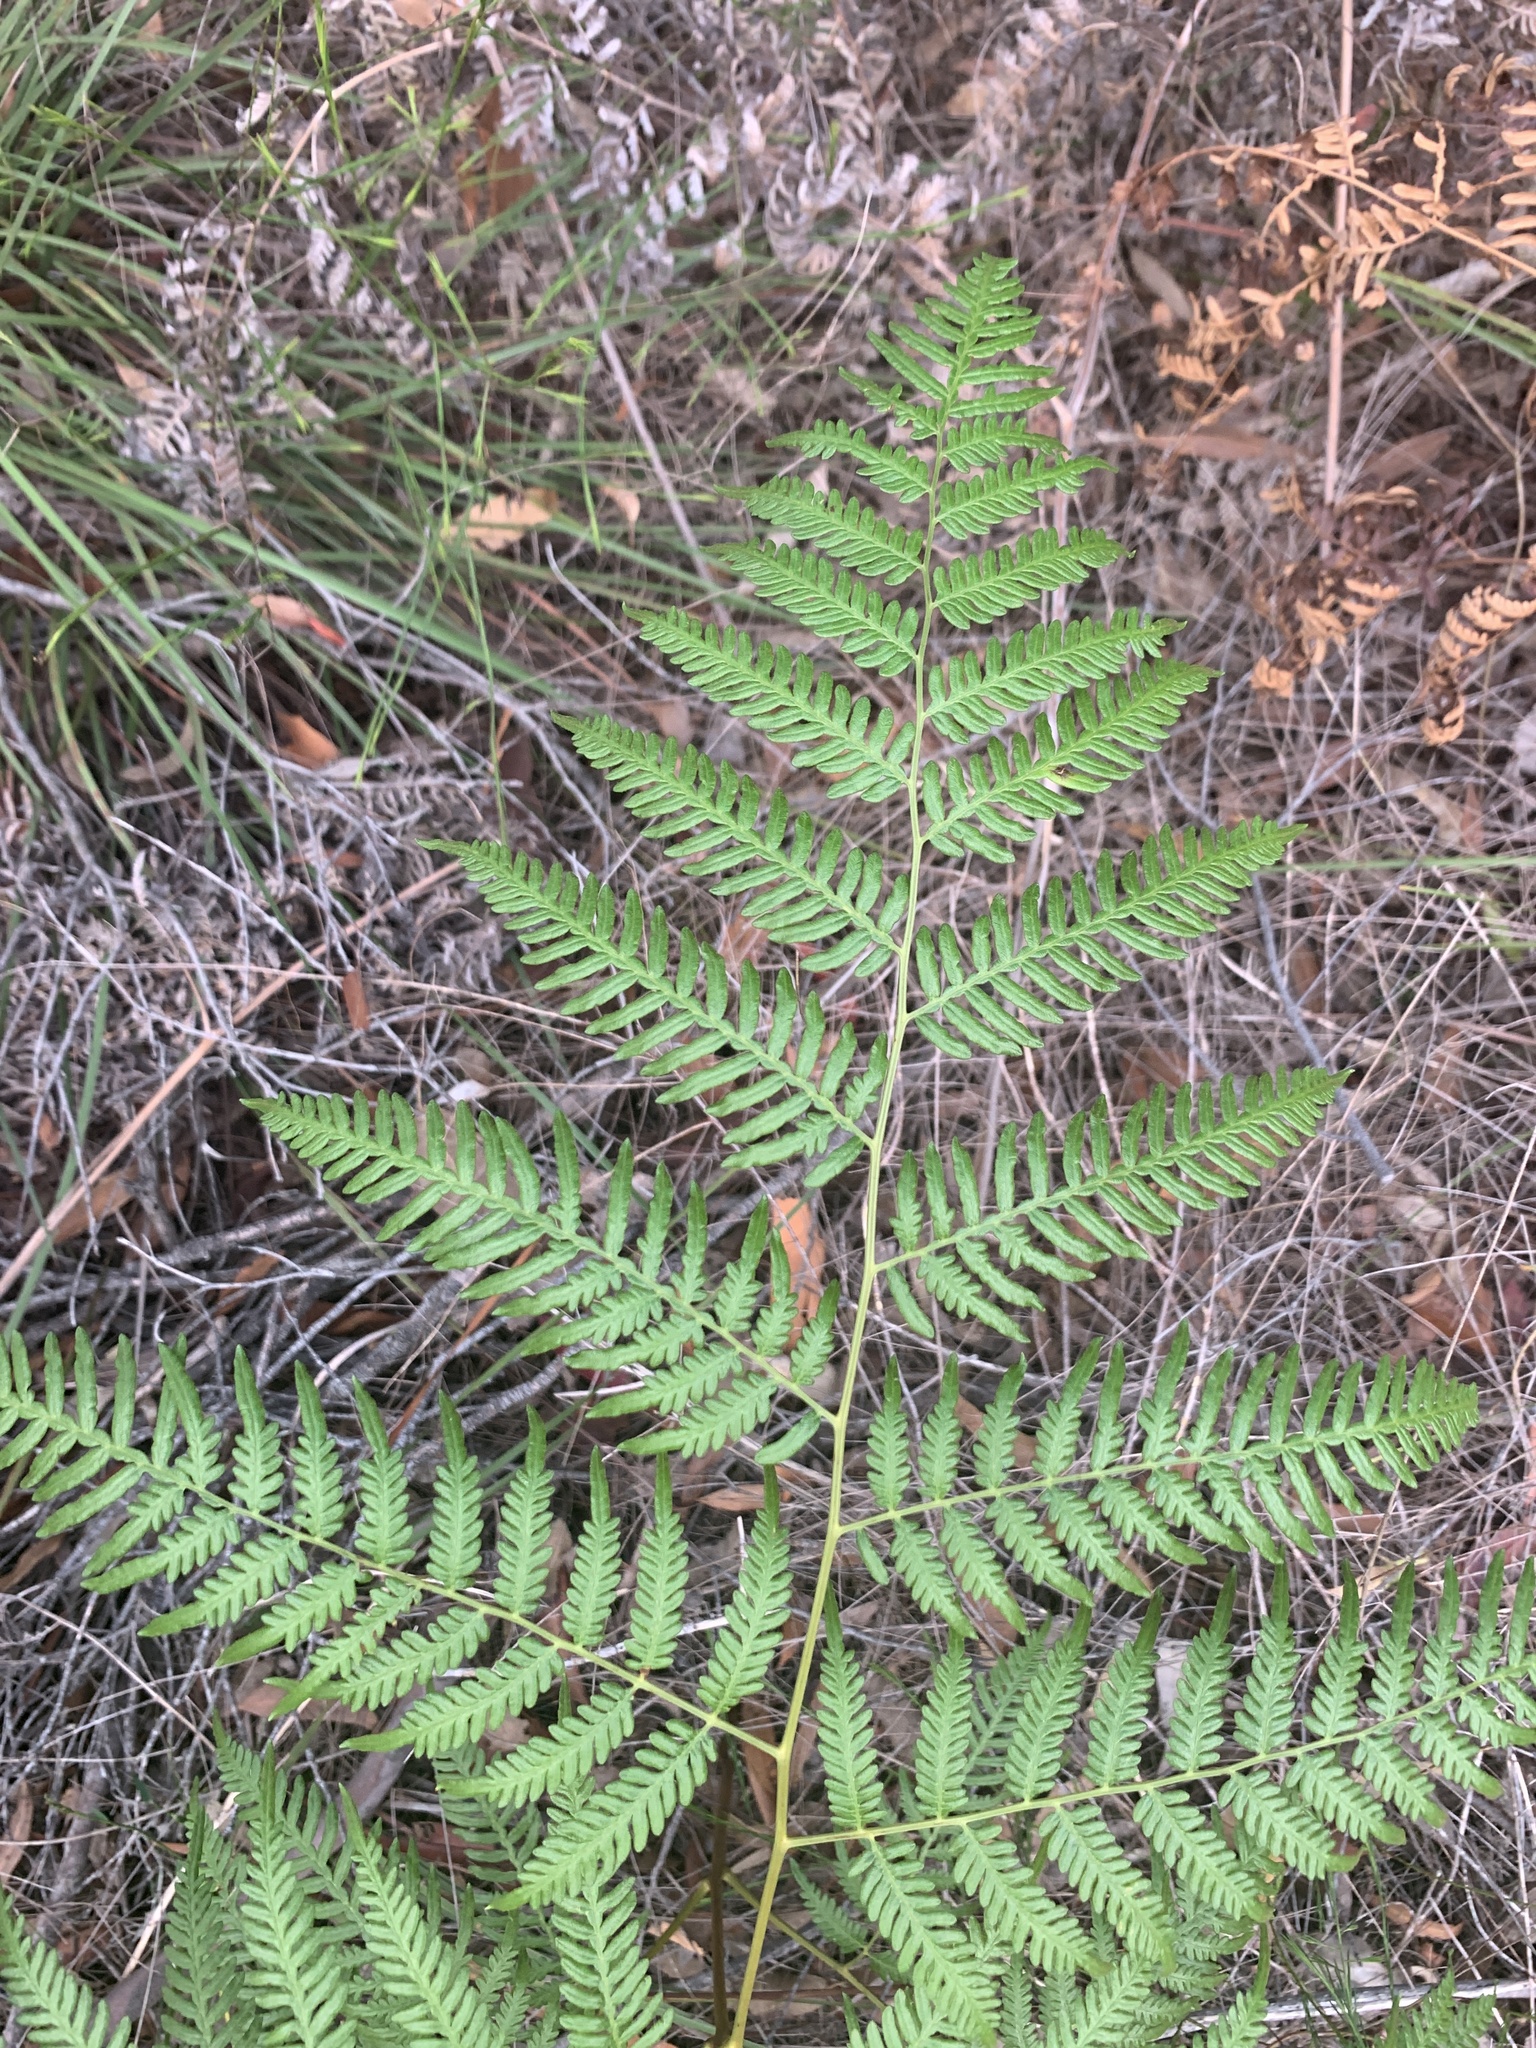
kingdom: Plantae
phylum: Tracheophyta
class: Polypodiopsida
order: Polypodiales
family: Dennstaedtiaceae
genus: Pteridium
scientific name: Pteridium esculentum
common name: Bracken fern
